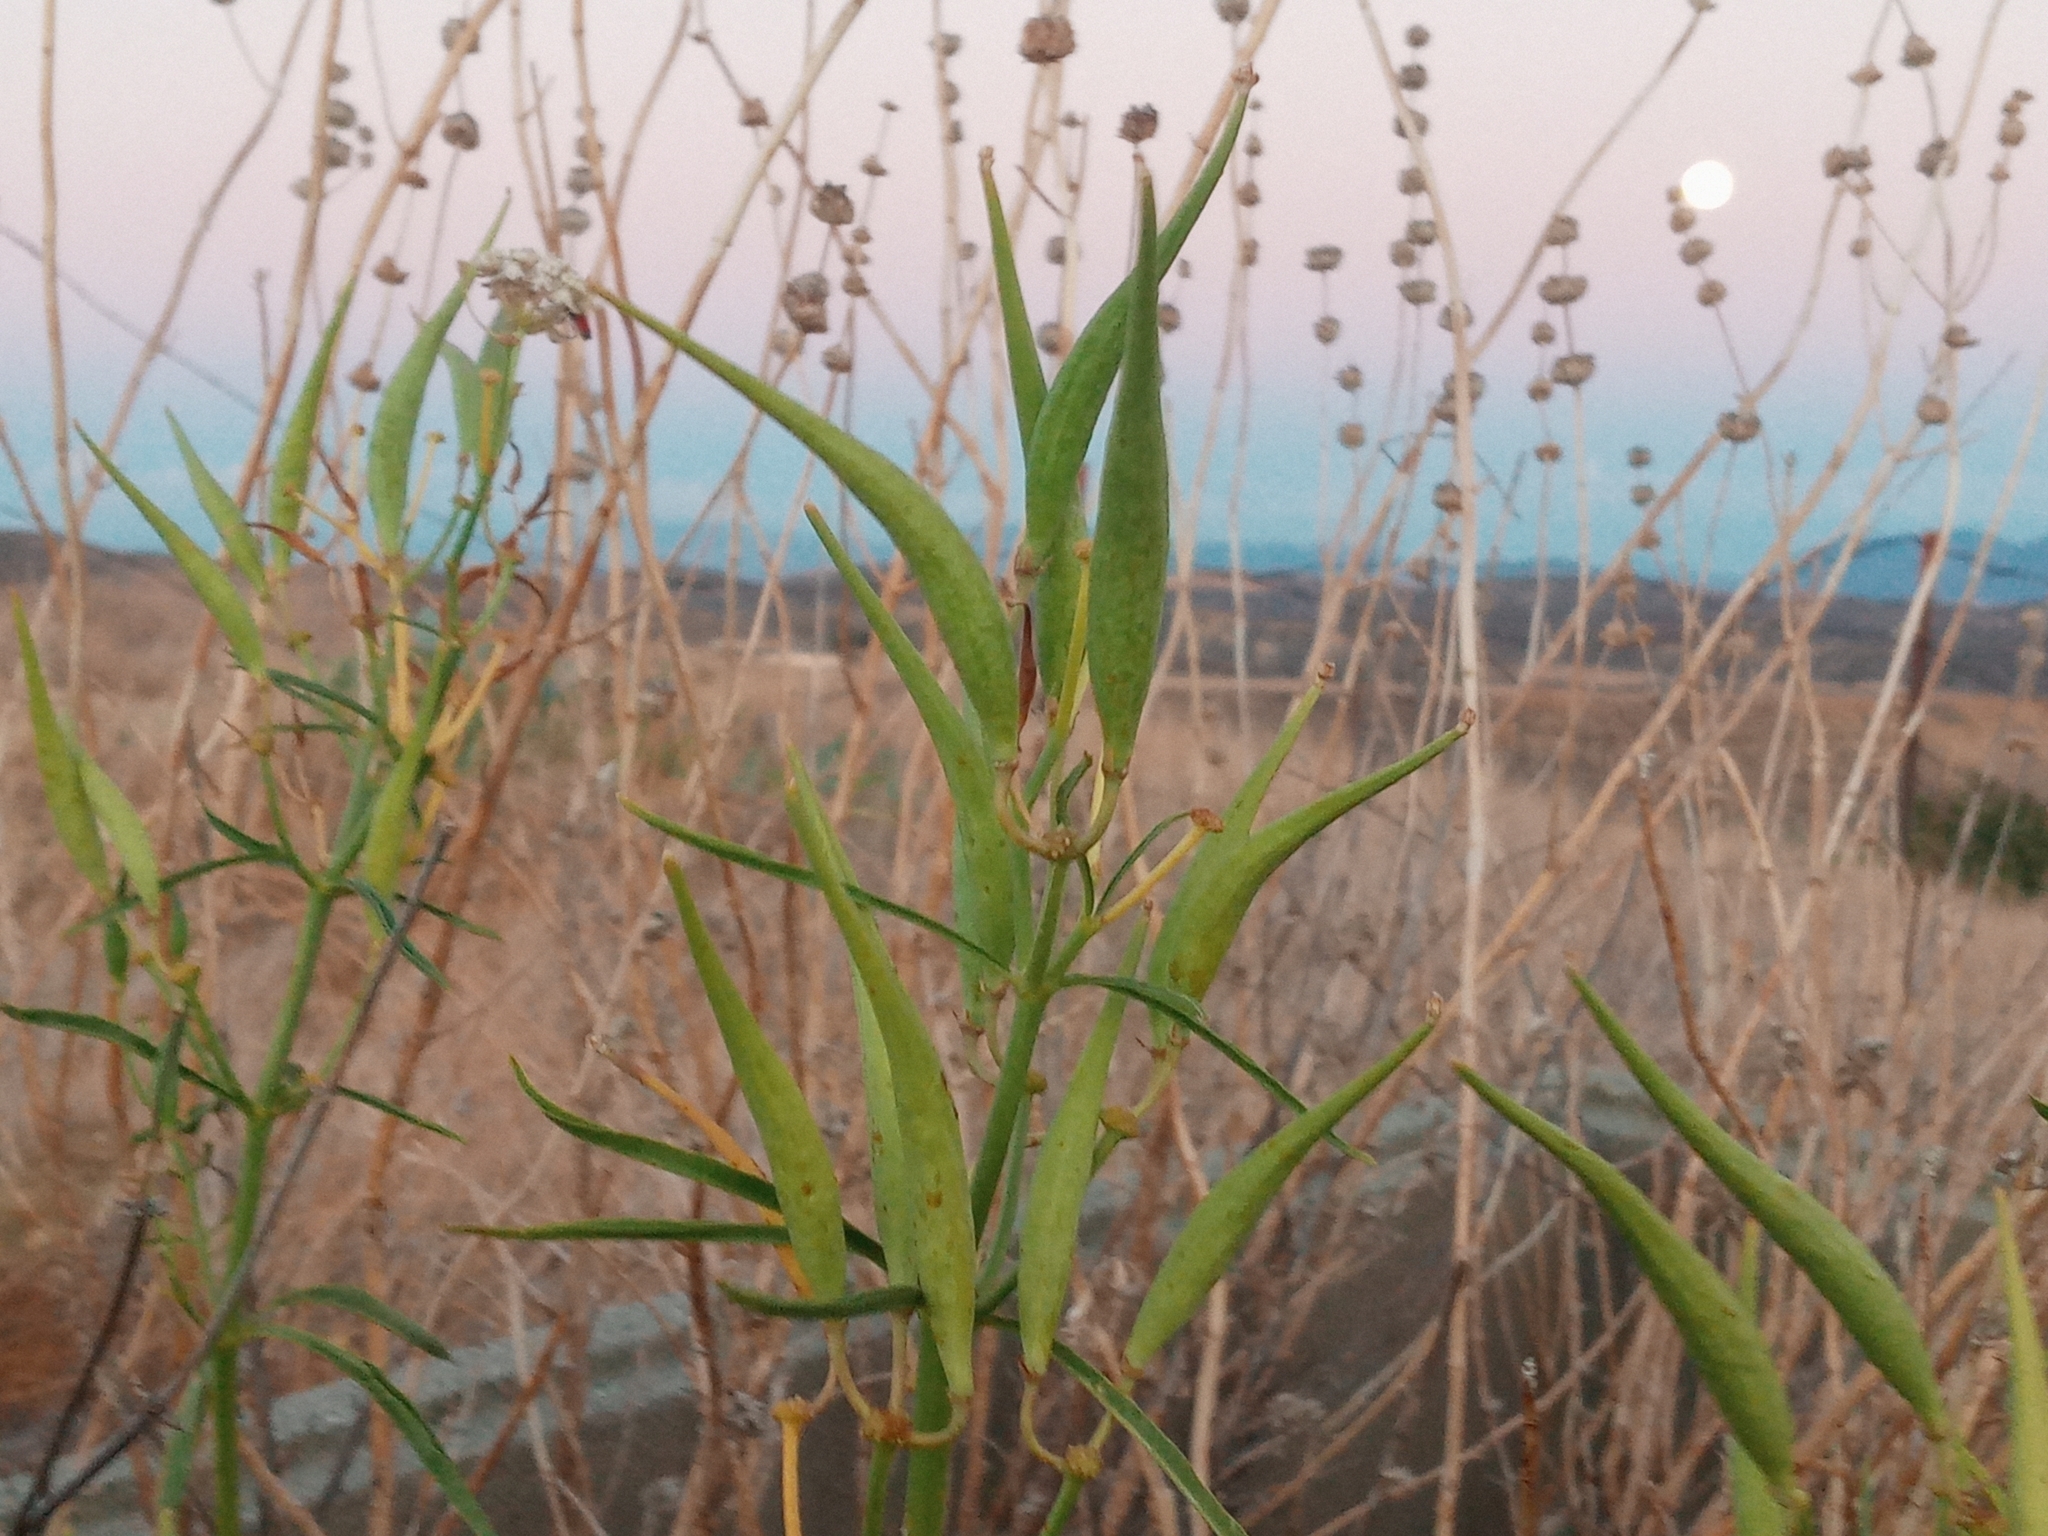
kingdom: Plantae
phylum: Tracheophyta
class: Magnoliopsida
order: Gentianales
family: Apocynaceae
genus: Asclepias
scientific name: Asclepias fascicularis
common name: Mexican milkweed
